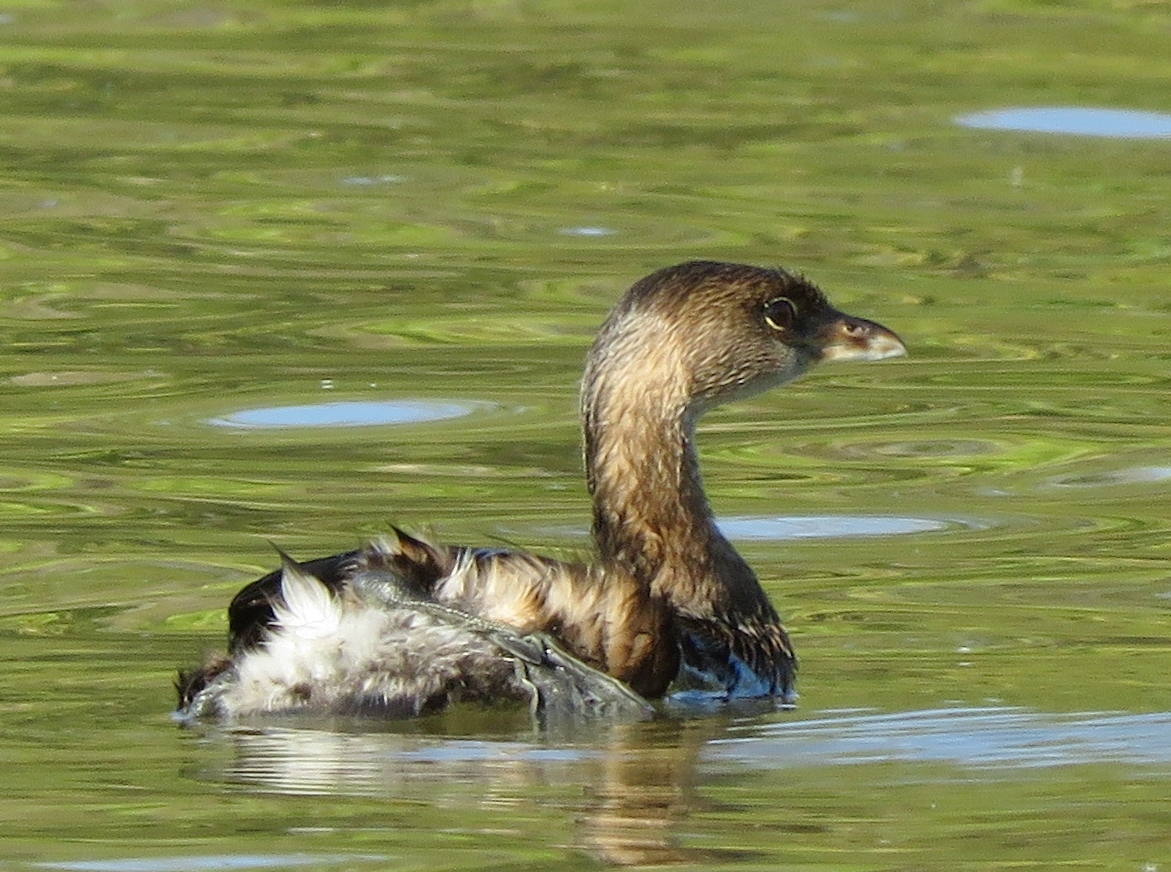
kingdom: Animalia
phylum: Chordata
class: Aves
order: Podicipediformes
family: Podicipedidae
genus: Podilymbus
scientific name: Podilymbus podiceps
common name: Pied-billed grebe
